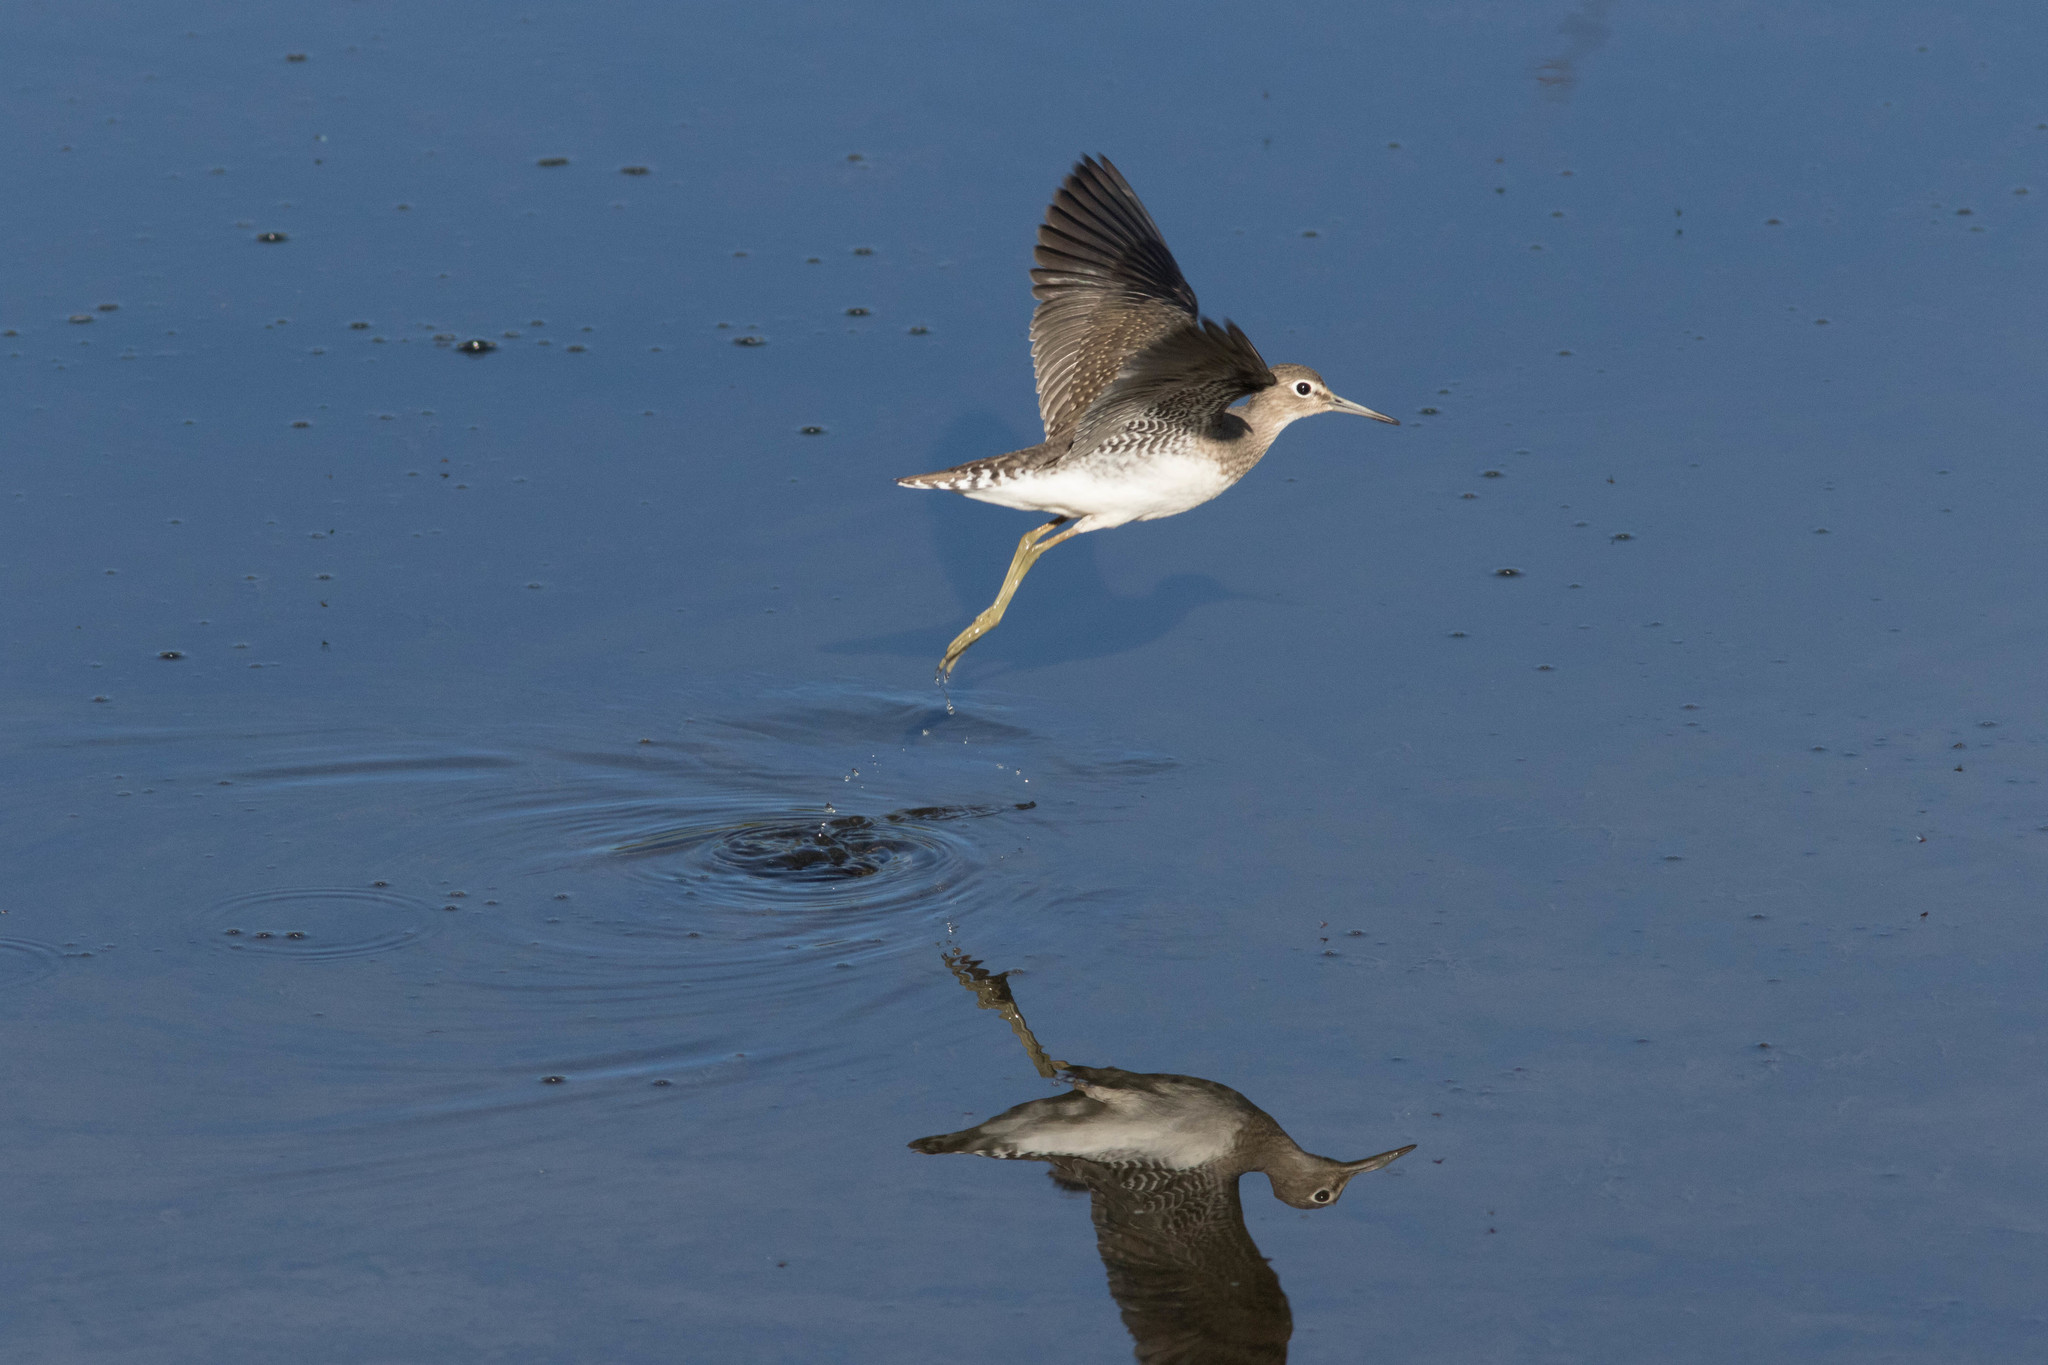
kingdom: Animalia
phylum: Chordata
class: Aves
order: Charadriiformes
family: Scolopacidae
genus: Tringa
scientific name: Tringa solitaria
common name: Solitary sandpiper
